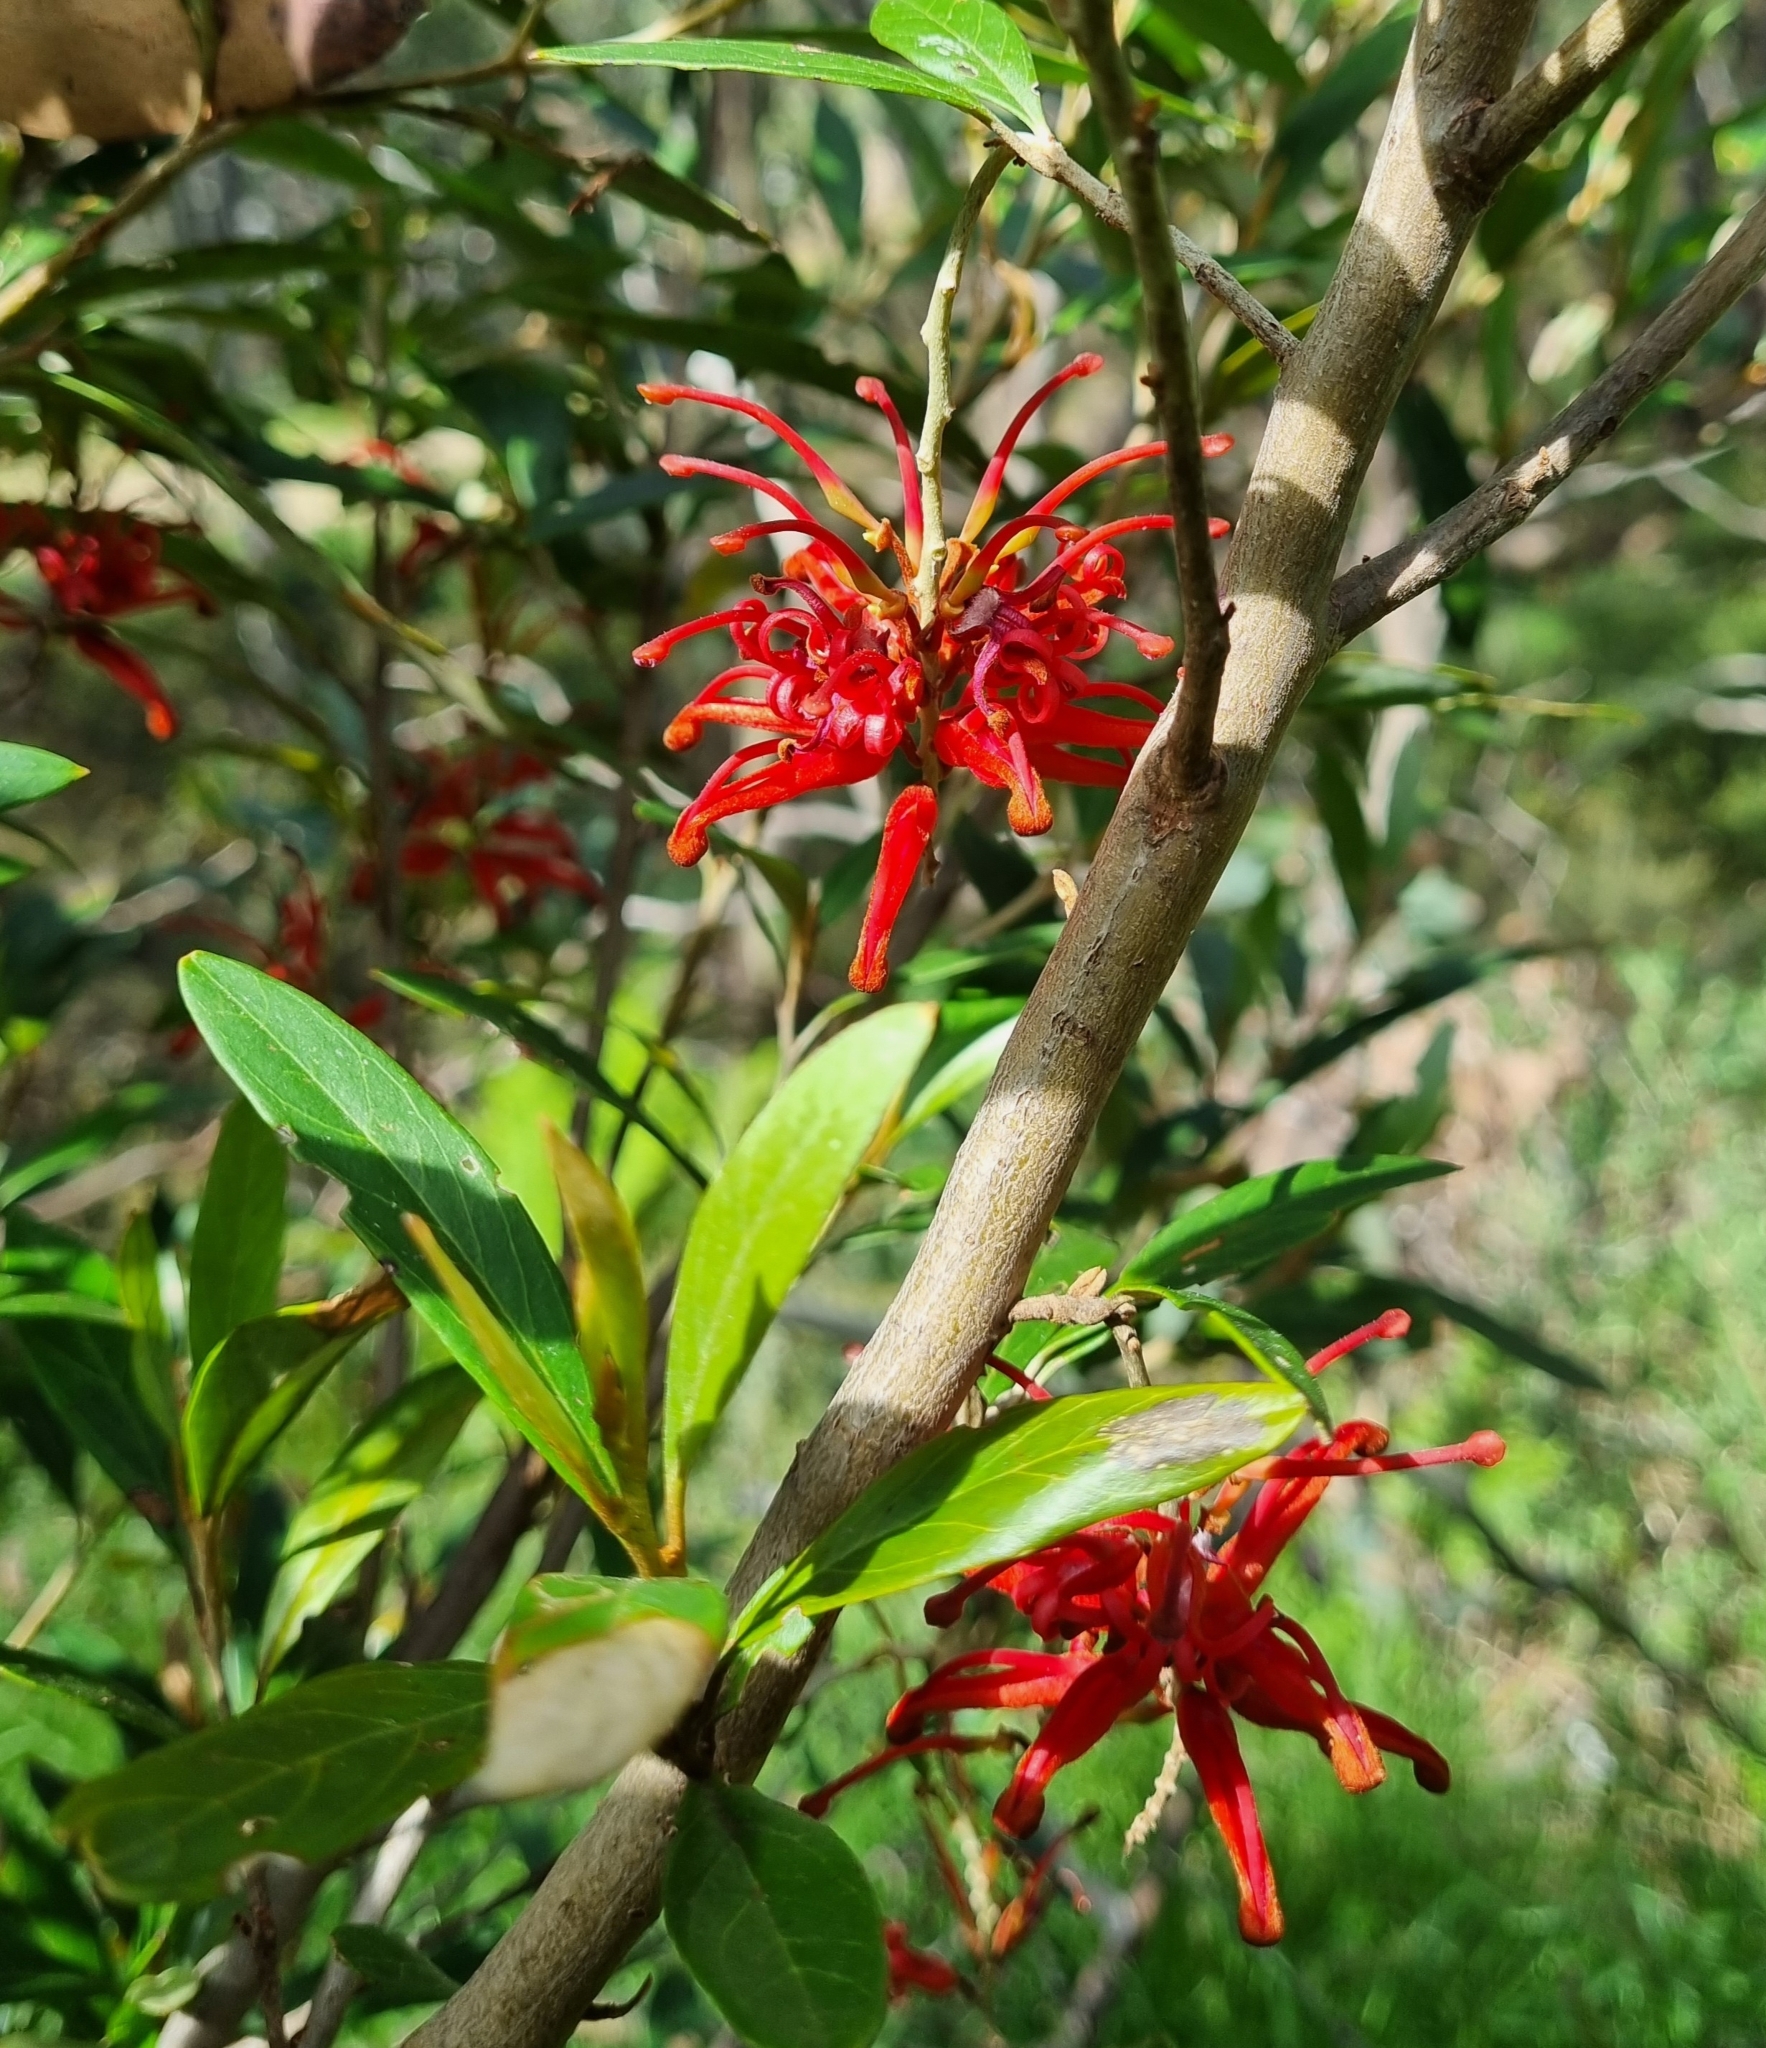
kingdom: Plantae
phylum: Tracheophyta
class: Magnoliopsida
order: Proteales
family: Proteaceae
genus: Grevillea
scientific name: Grevillea victoriae
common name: Royal grevillea
